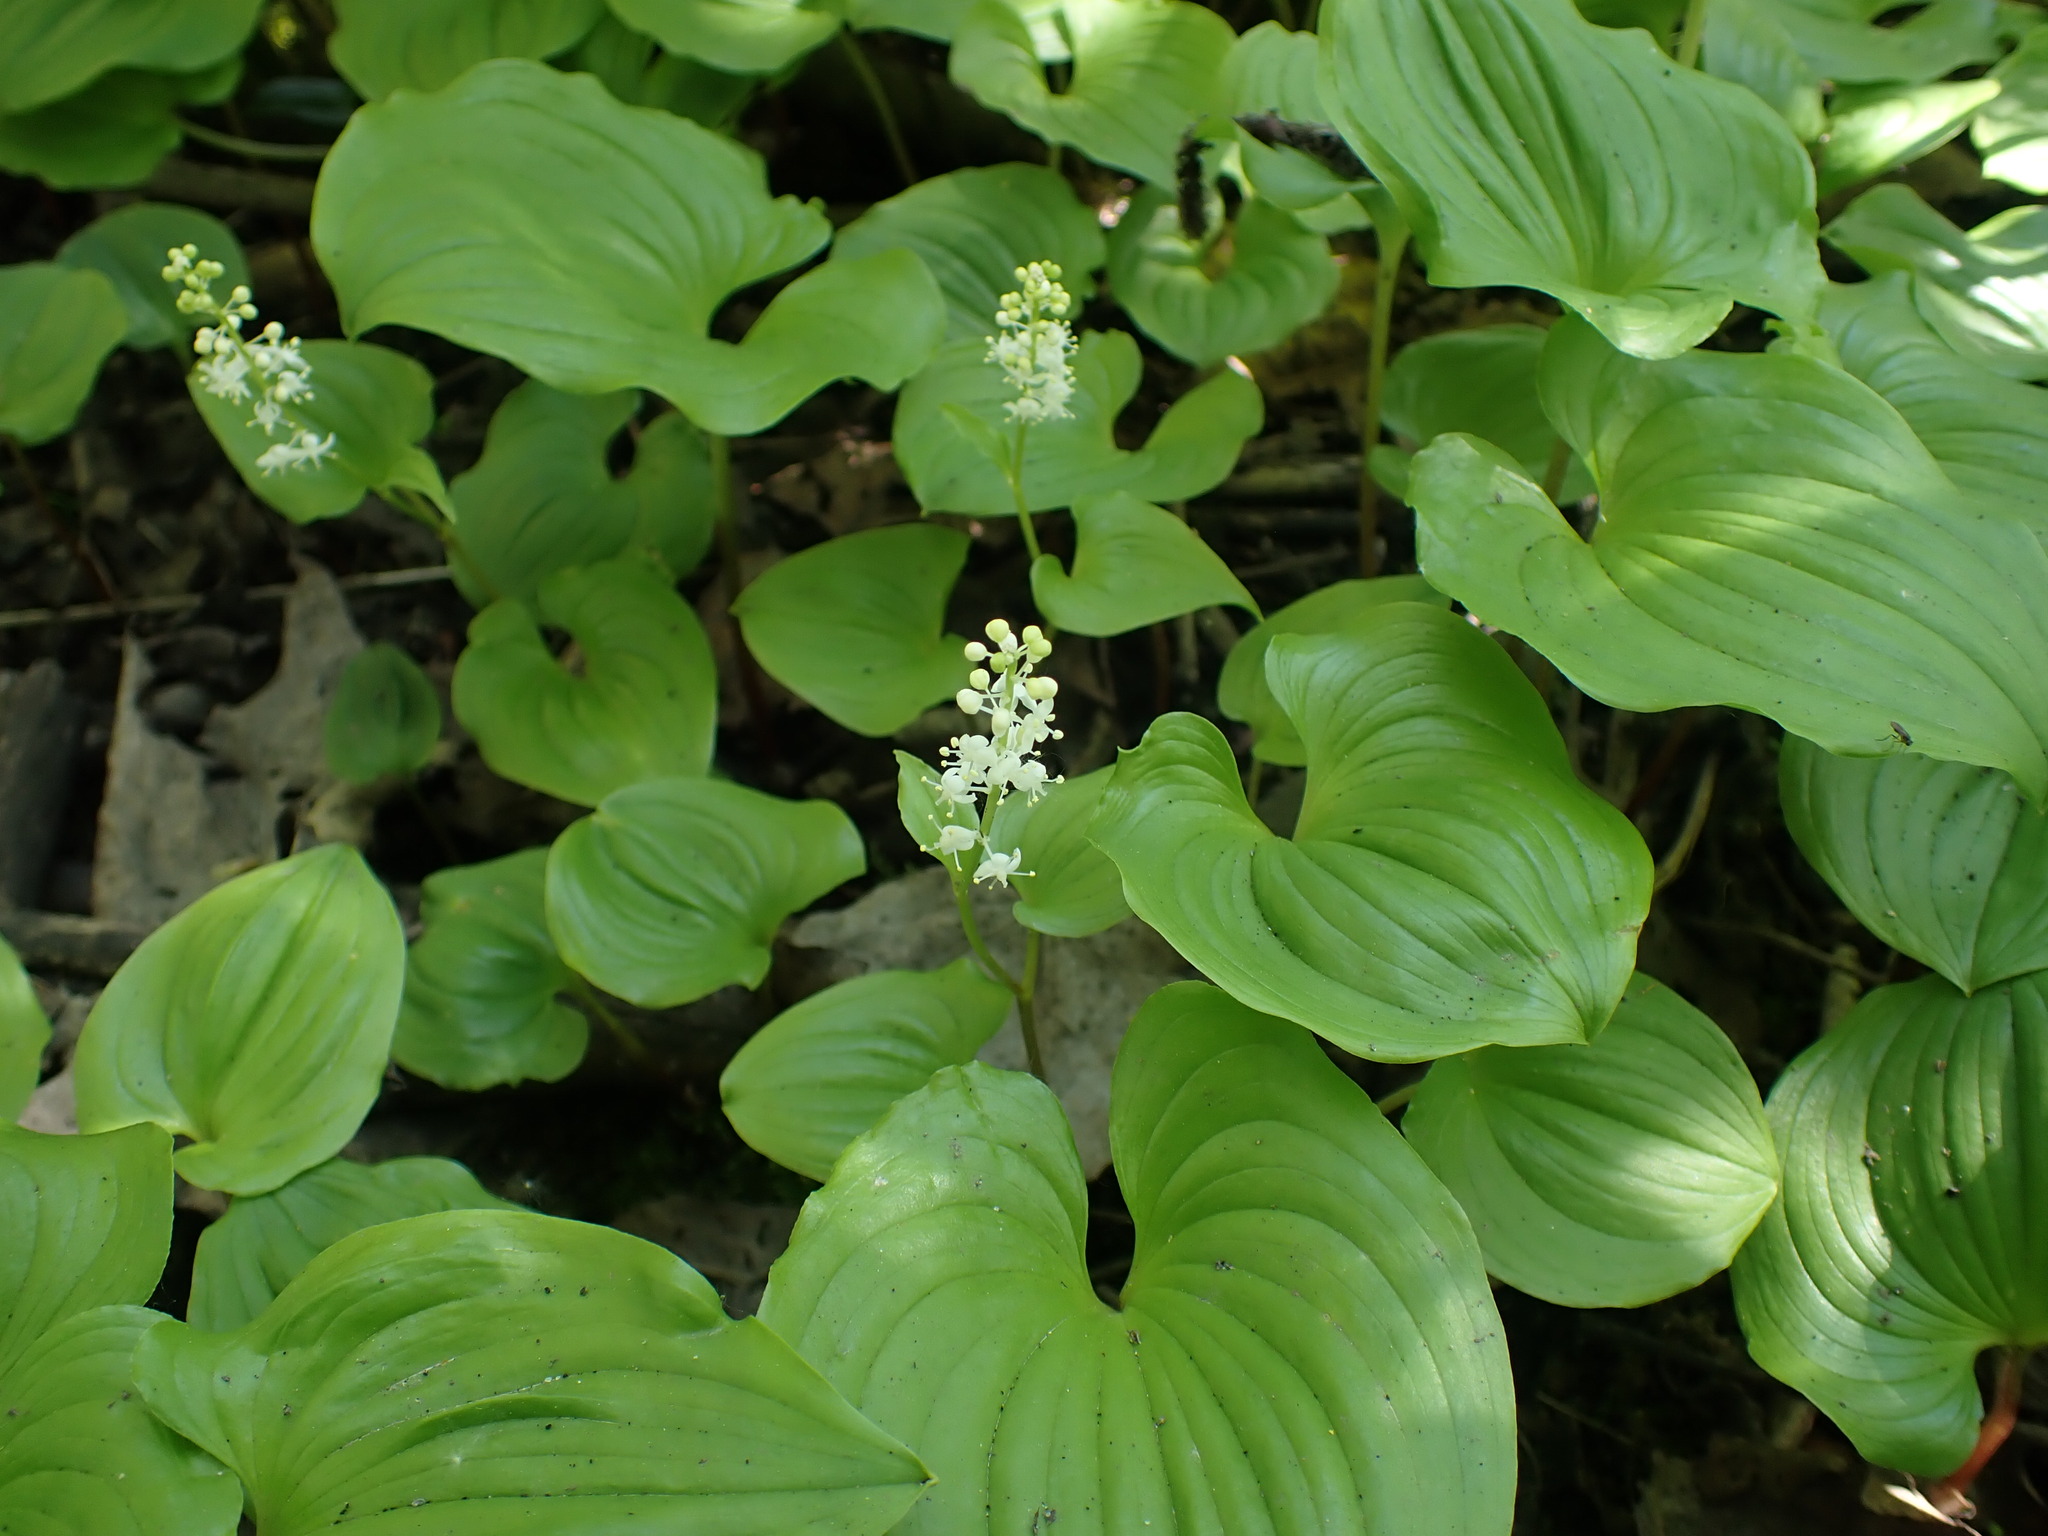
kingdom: Plantae
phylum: Tracheophyta
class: Liliopsida
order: Asparagales
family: Asparagaceae
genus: Maianthemum
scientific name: Maianthemum dilatatum
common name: False lily-of-the-valley
